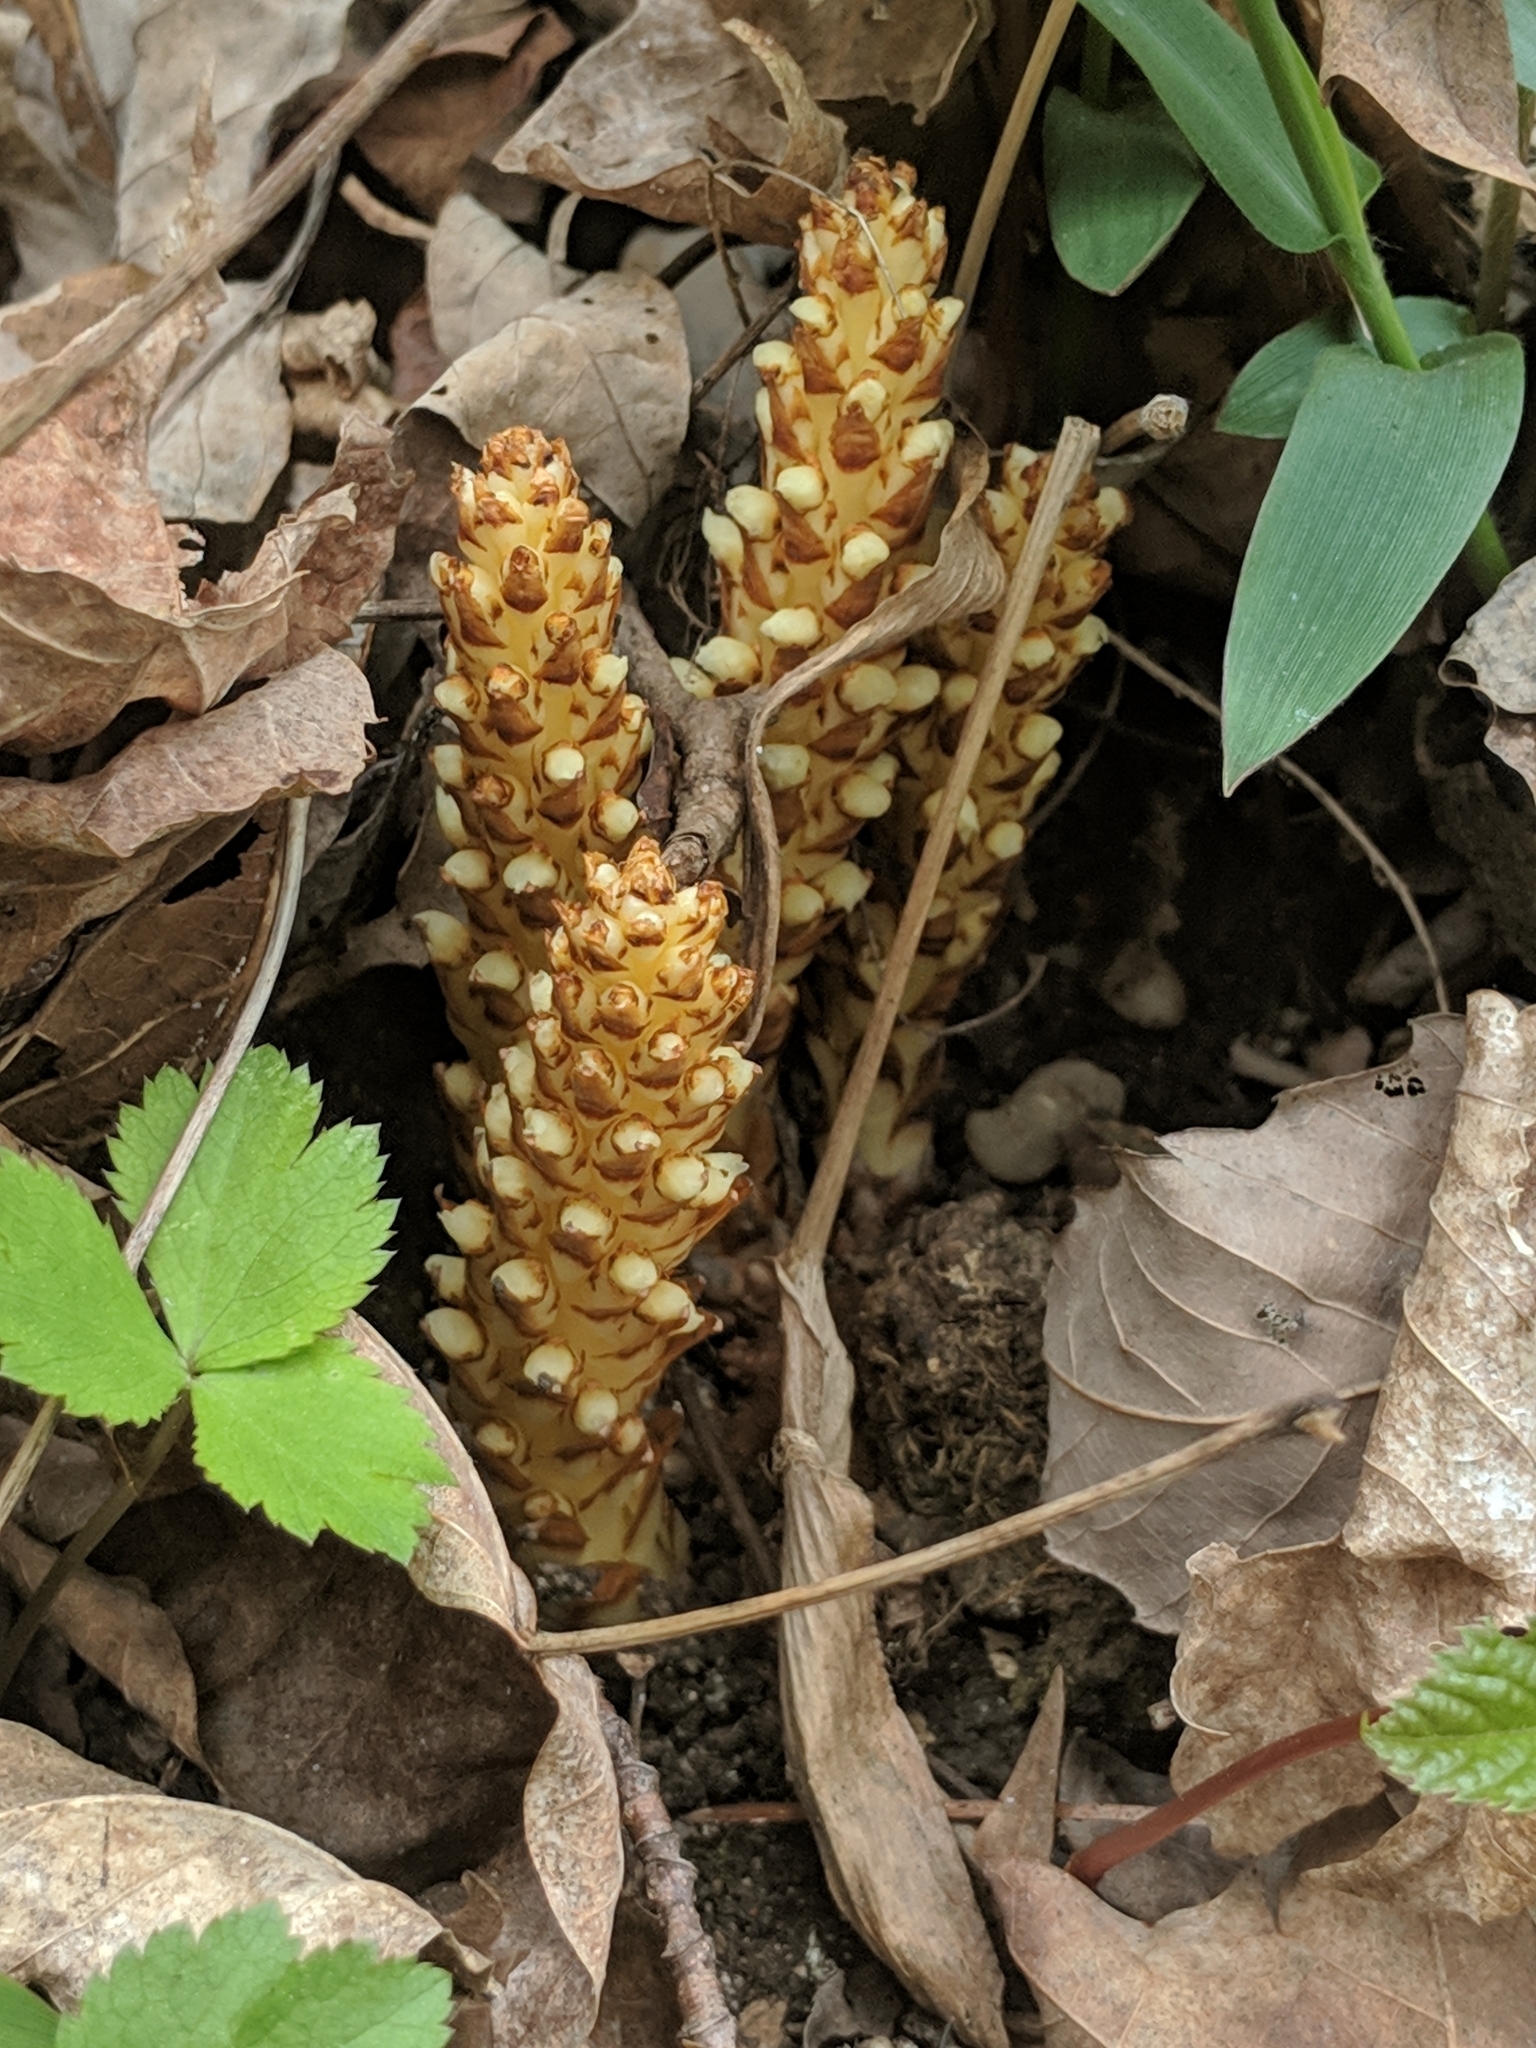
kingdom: Plantae
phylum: Tracheophyta
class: Magnoliopsida
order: Lamiales
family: Orobanchaceae
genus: Conopholis
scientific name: Conopholis americana
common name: American cancer-root
